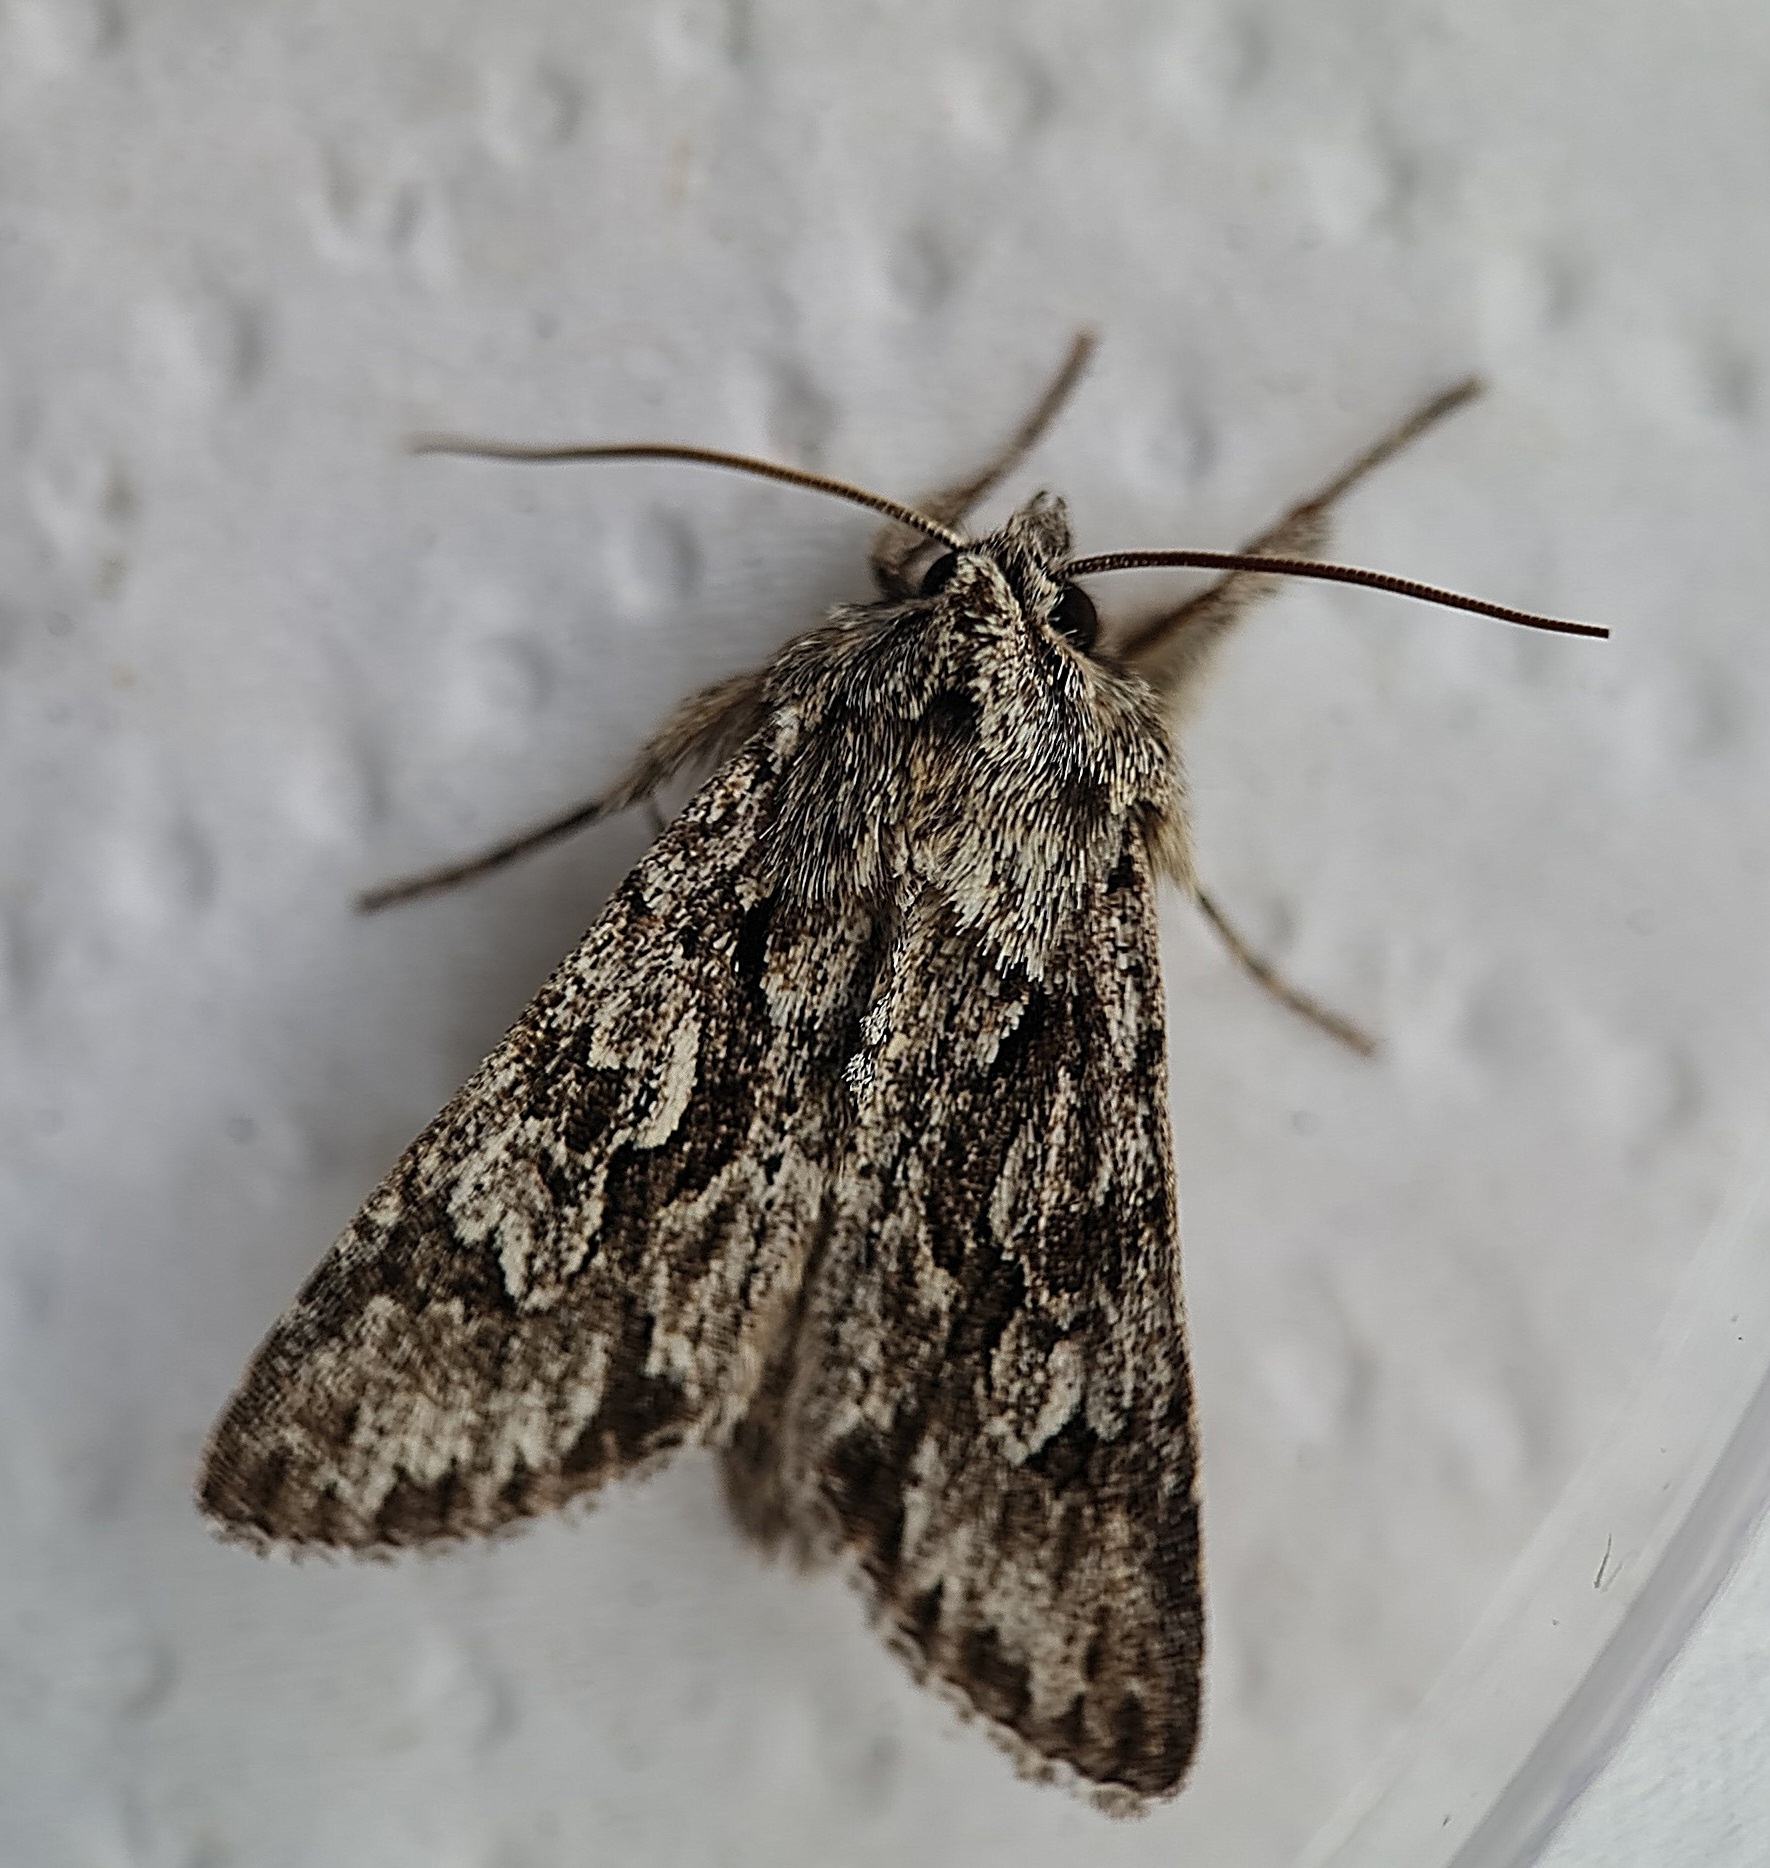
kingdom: Animalia
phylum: Arthropoda
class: Insecta
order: Lepidoptera
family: Noctuidae
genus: Xylocampa
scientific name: Xylocampa areola
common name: Early grey
